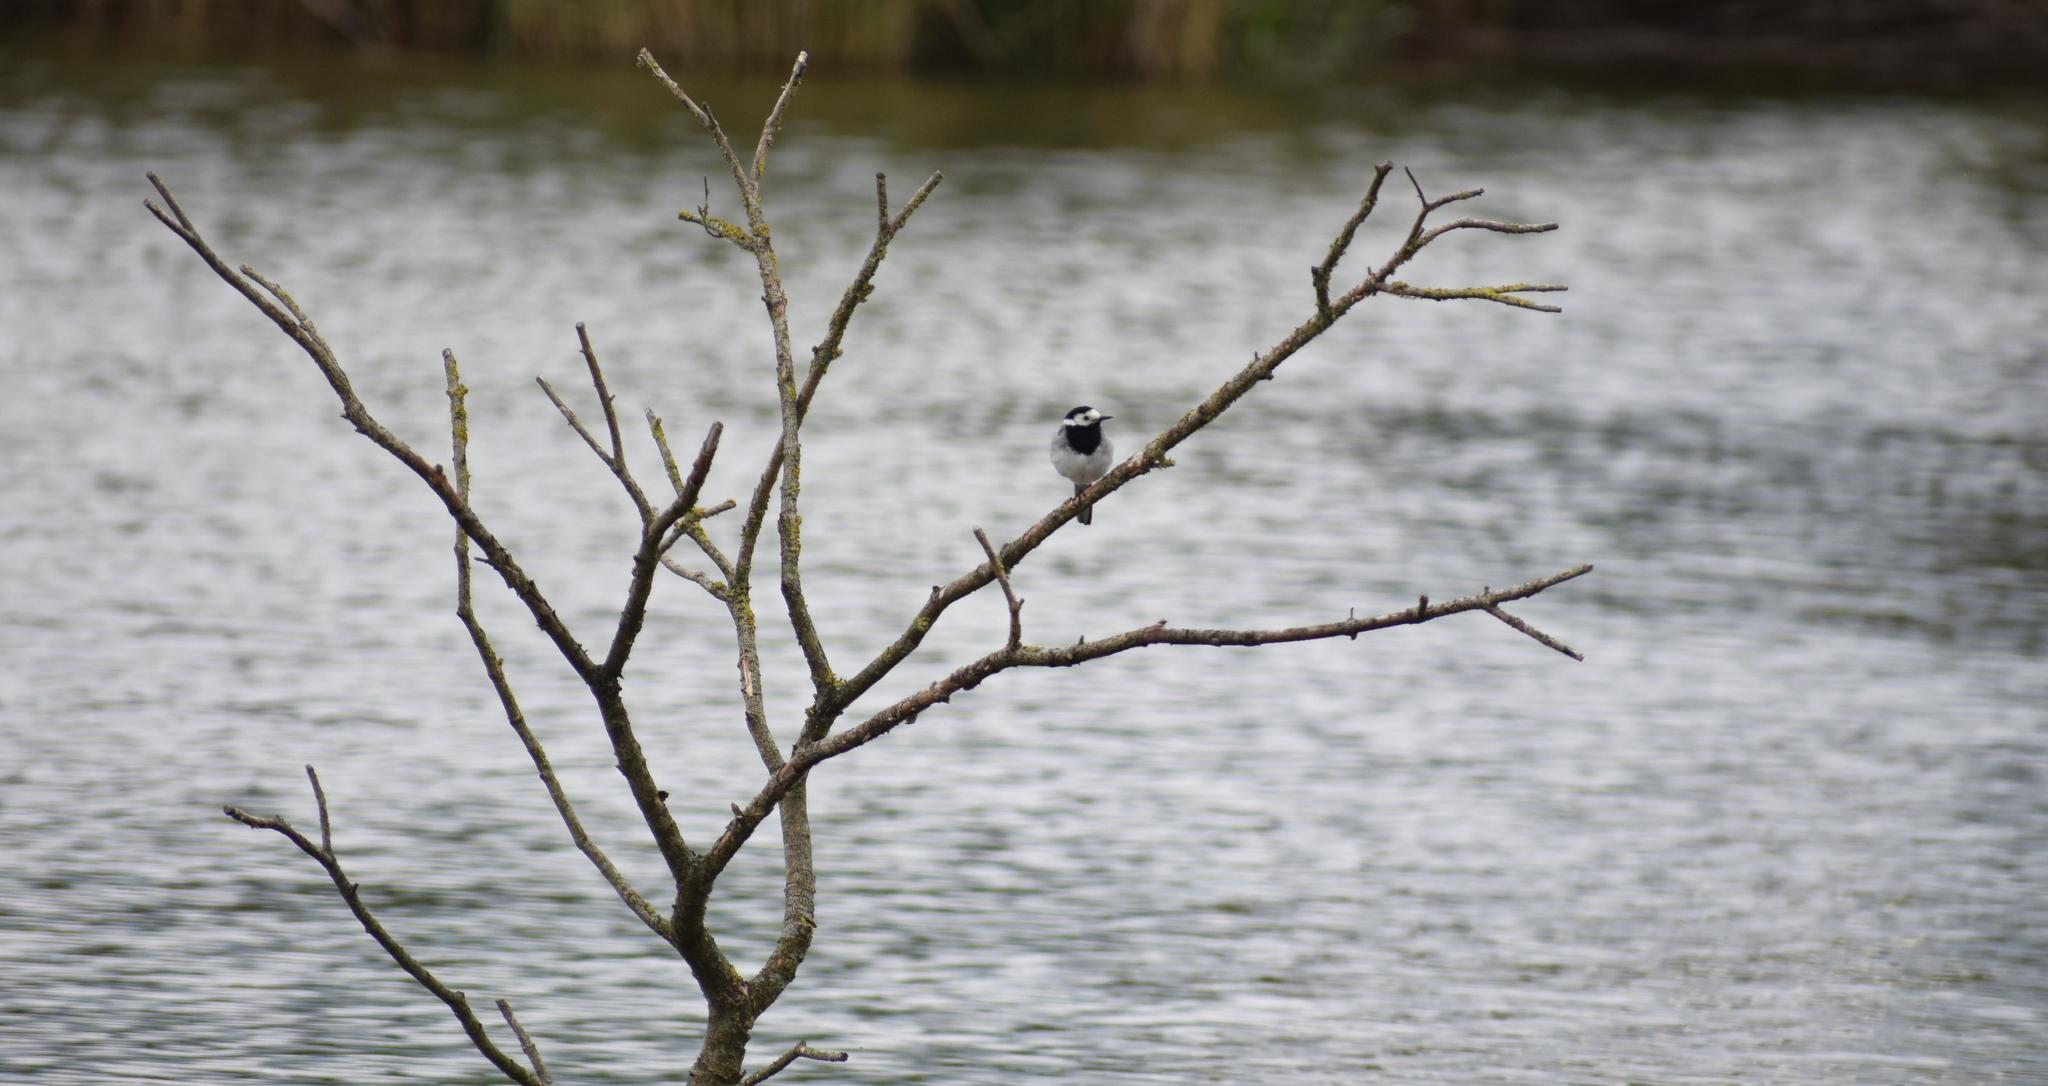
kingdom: Animalia
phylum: Chordata
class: Aves
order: Passeriformes
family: Motacillidae
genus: Motacilla
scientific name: Motacilla alba
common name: White wagtail
